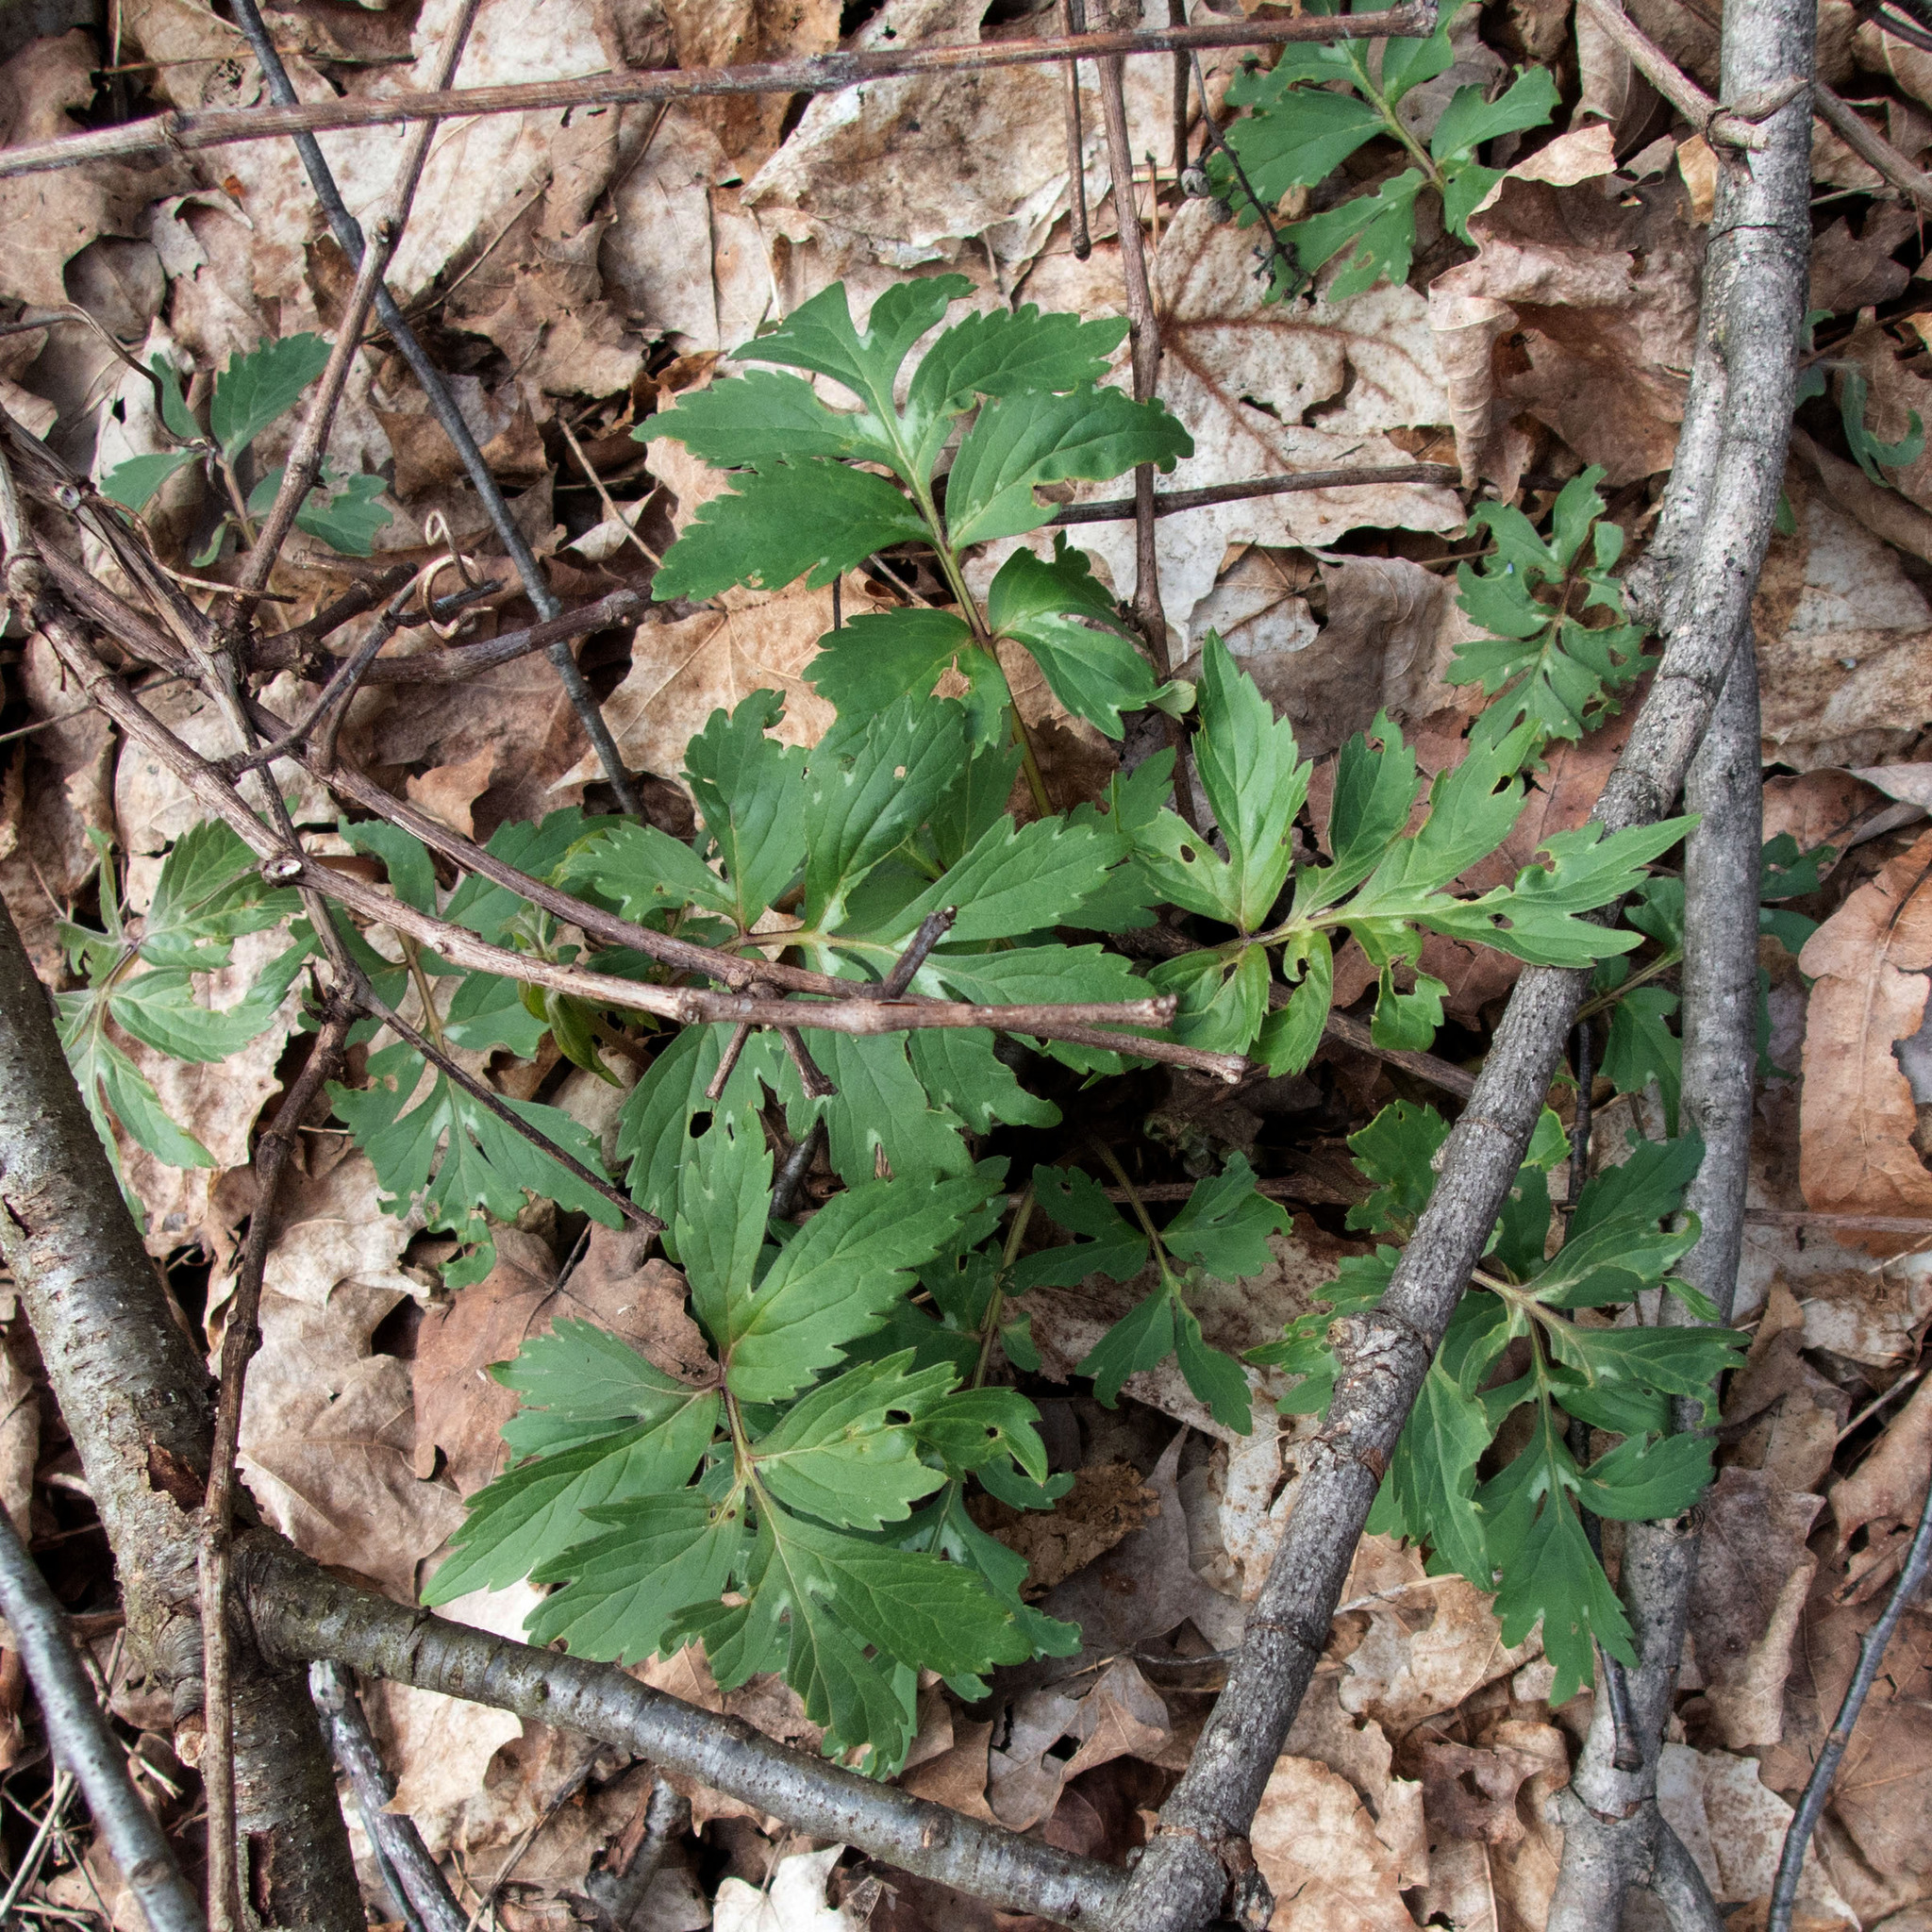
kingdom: Plantae
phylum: Tracheophyta
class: Magnoliopsida
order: Boraginales
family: Hydrophyllaceae
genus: Hydrophyllum
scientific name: Hydrophyllum virginianum
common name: Virginia waterleaf
